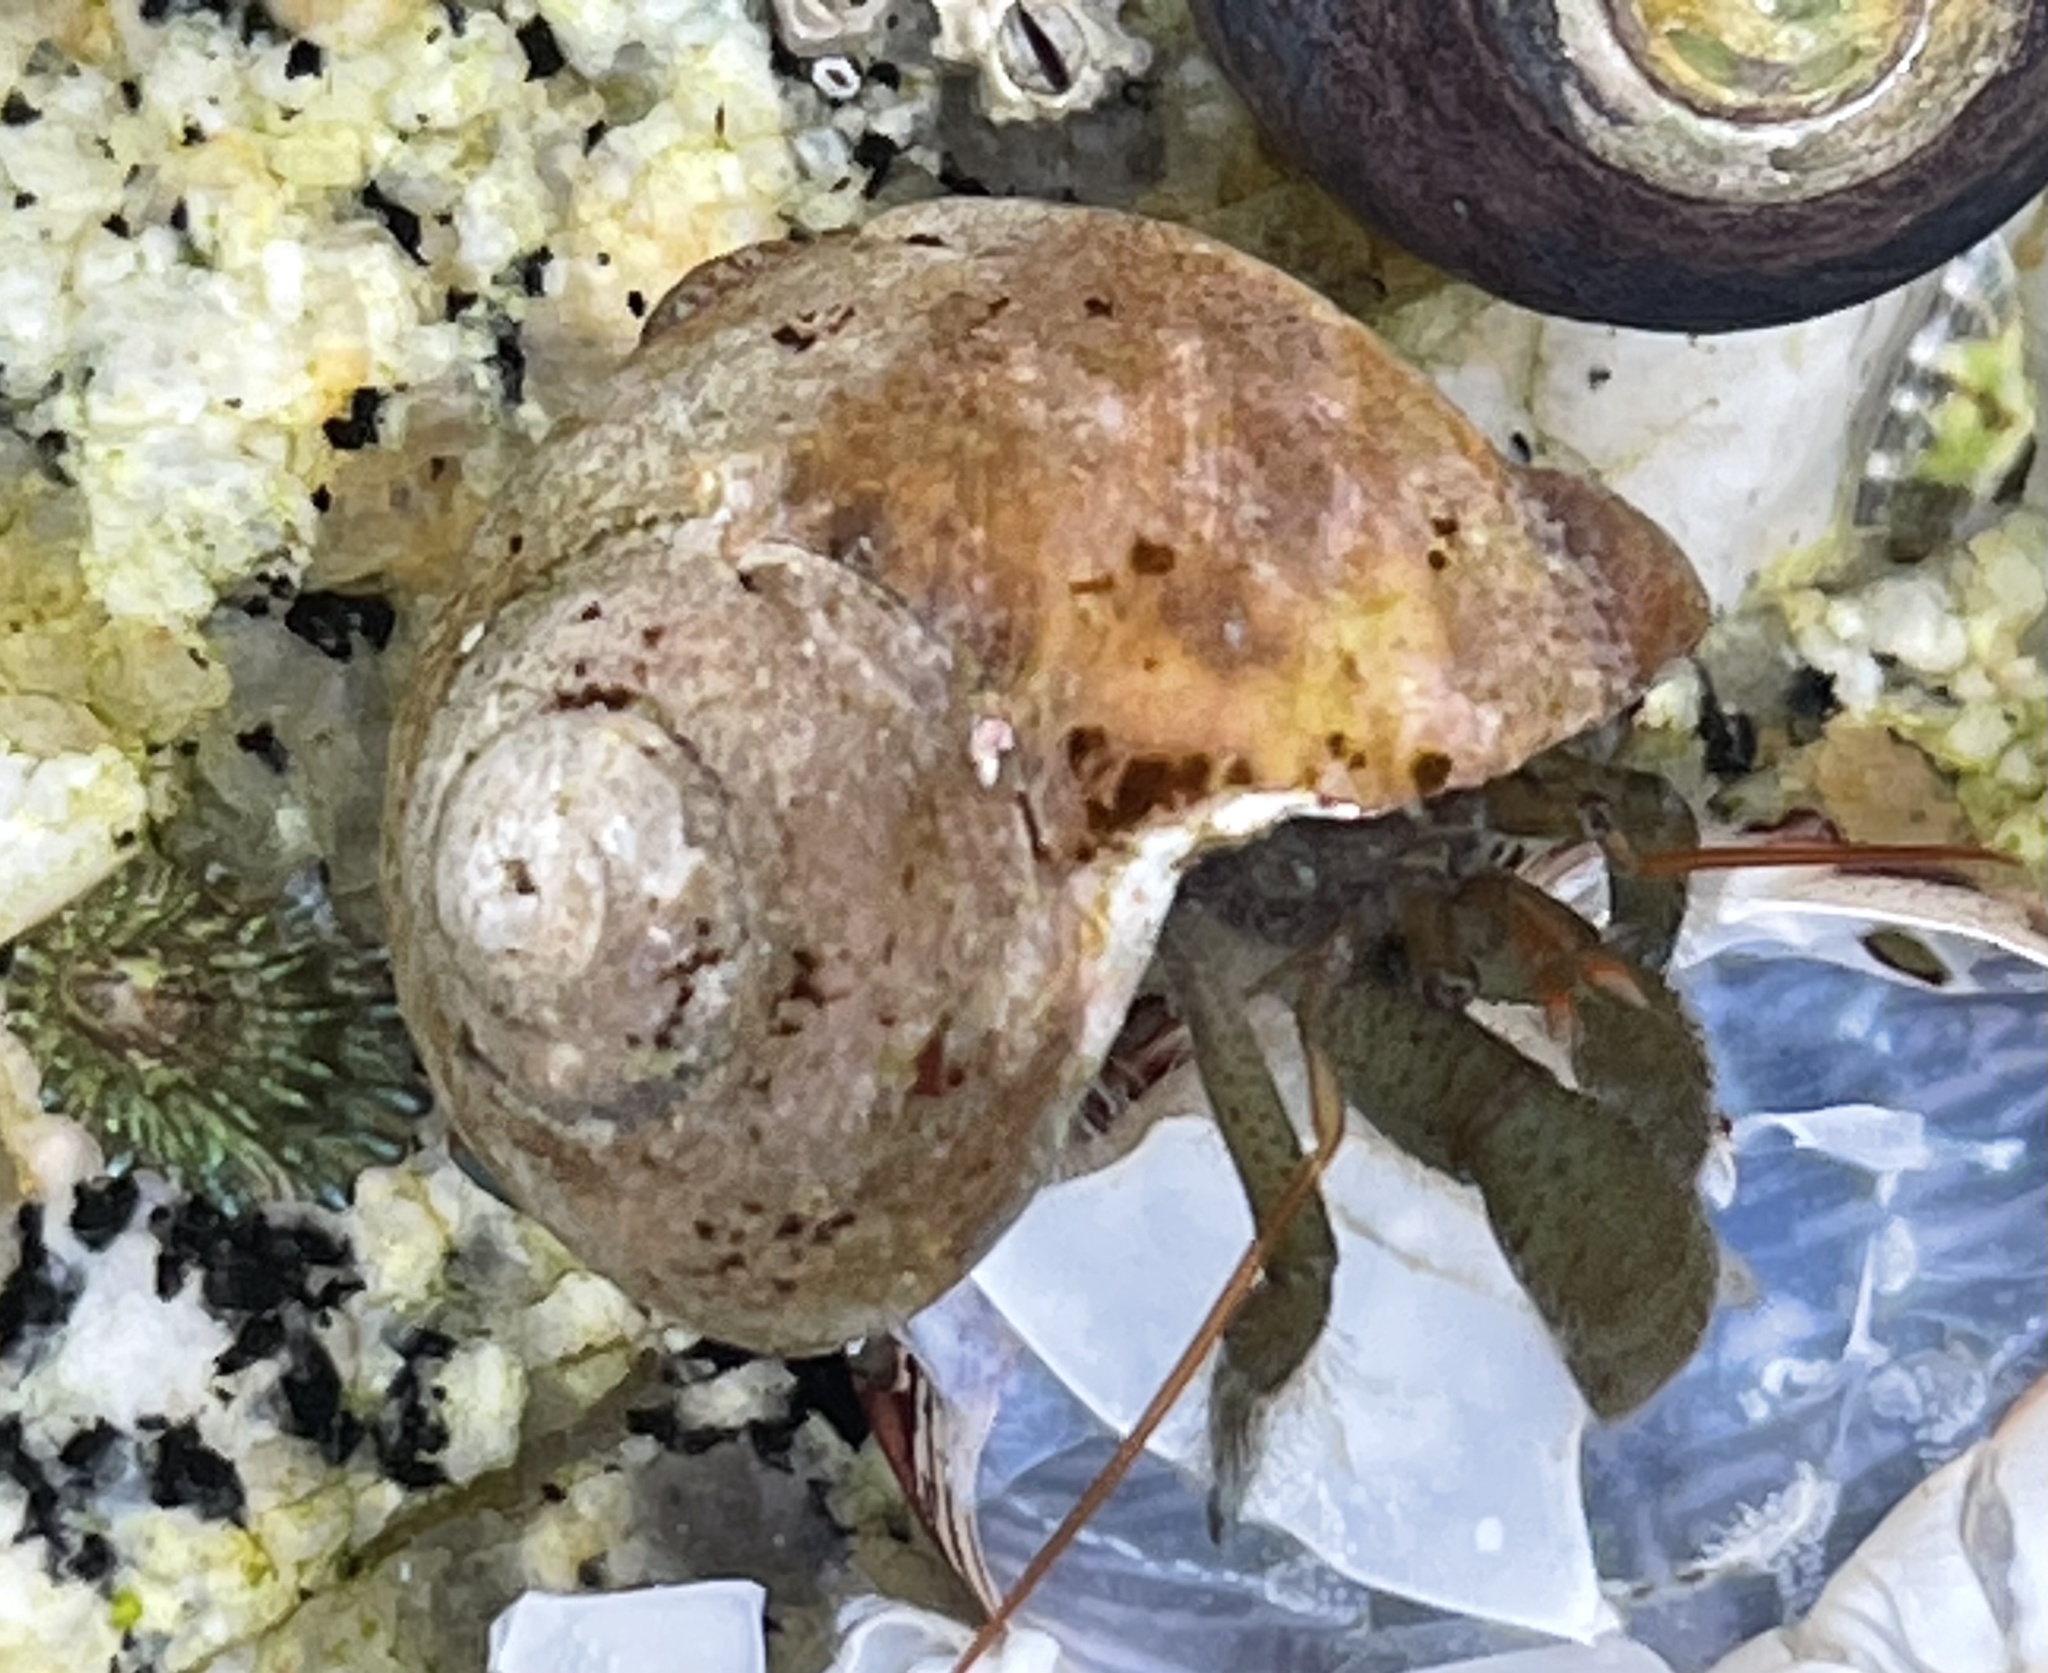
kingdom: Animalia
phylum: Arthropoda
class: Malacostraca
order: Decapoda
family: Paguridae
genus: Pagurus
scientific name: Pagurus samuelis
